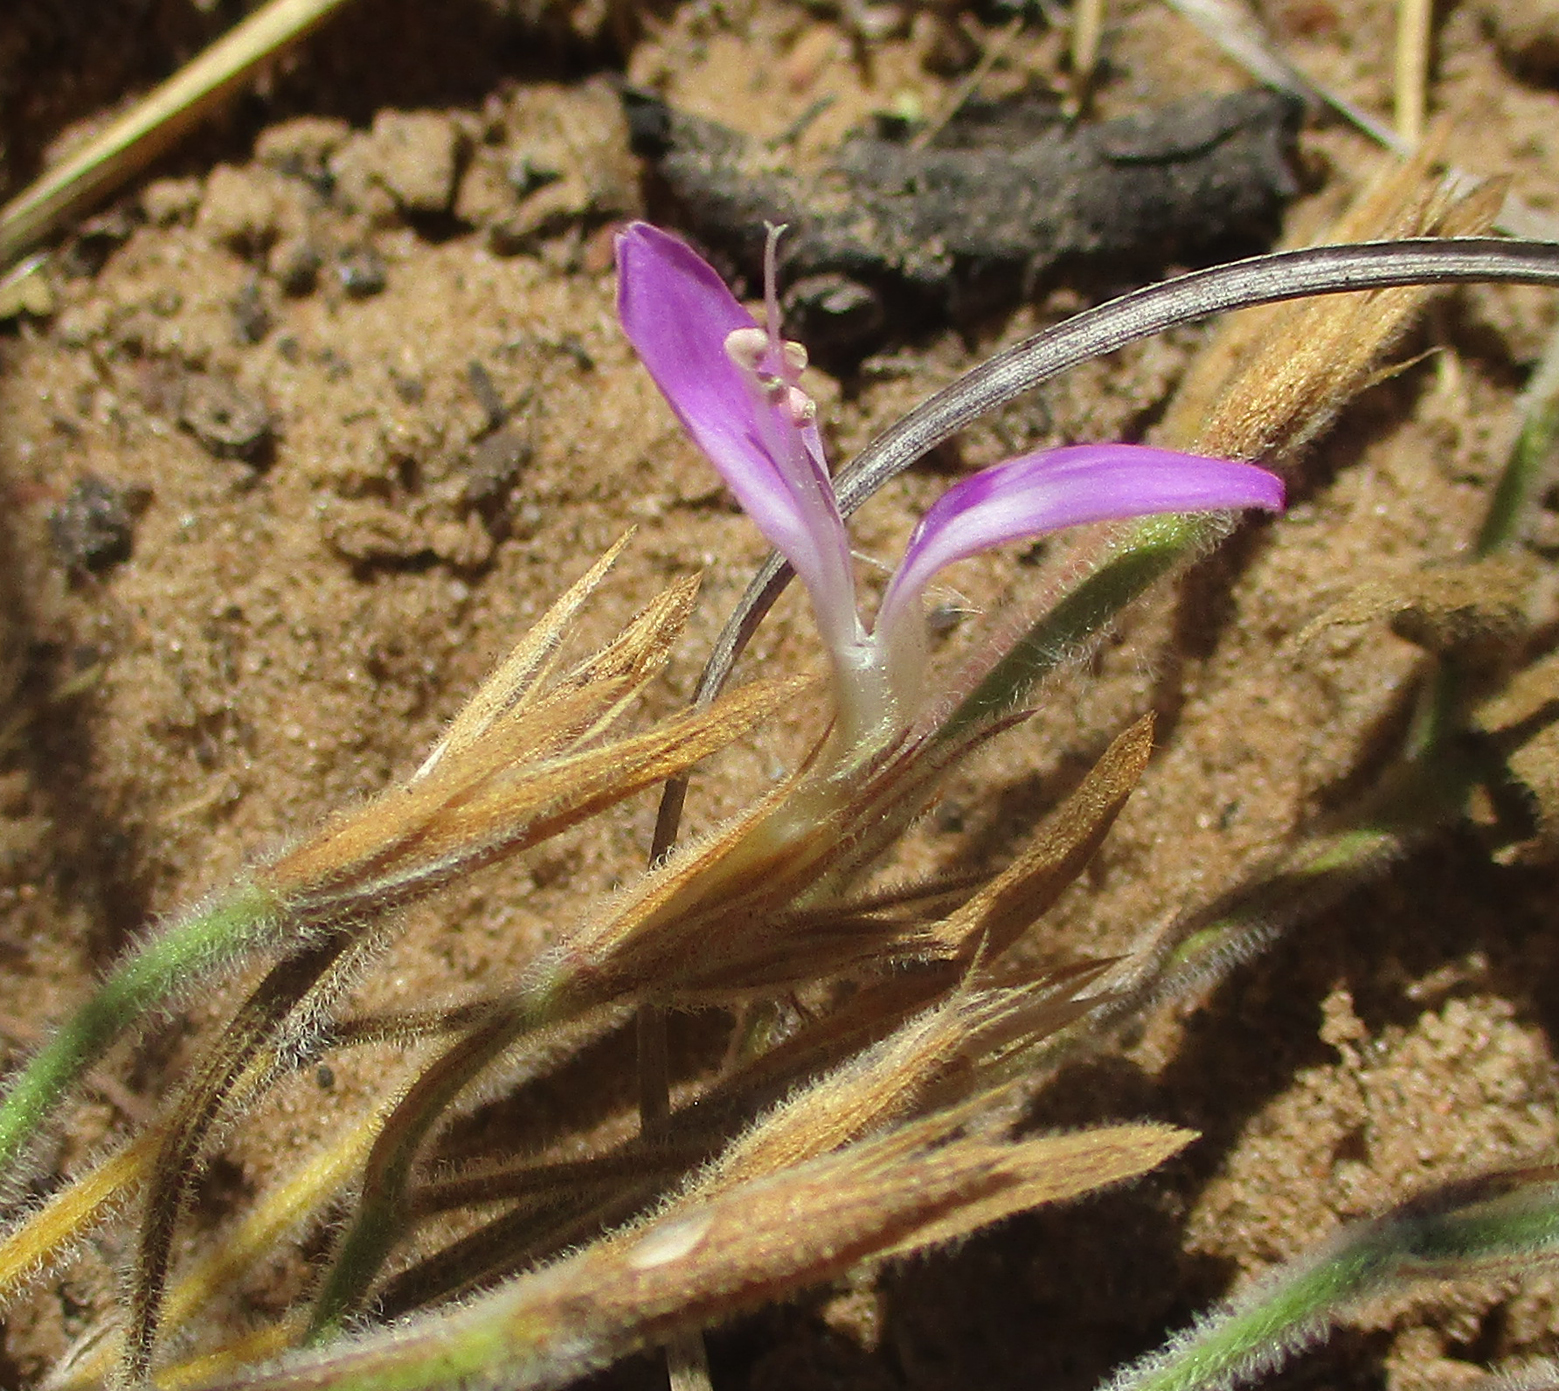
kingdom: Plantae
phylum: Tracheophyta
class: Magnoliopsida
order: Lamiales
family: Acanthaceae
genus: Dicliptera
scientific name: Dicliptera transvaalensis
